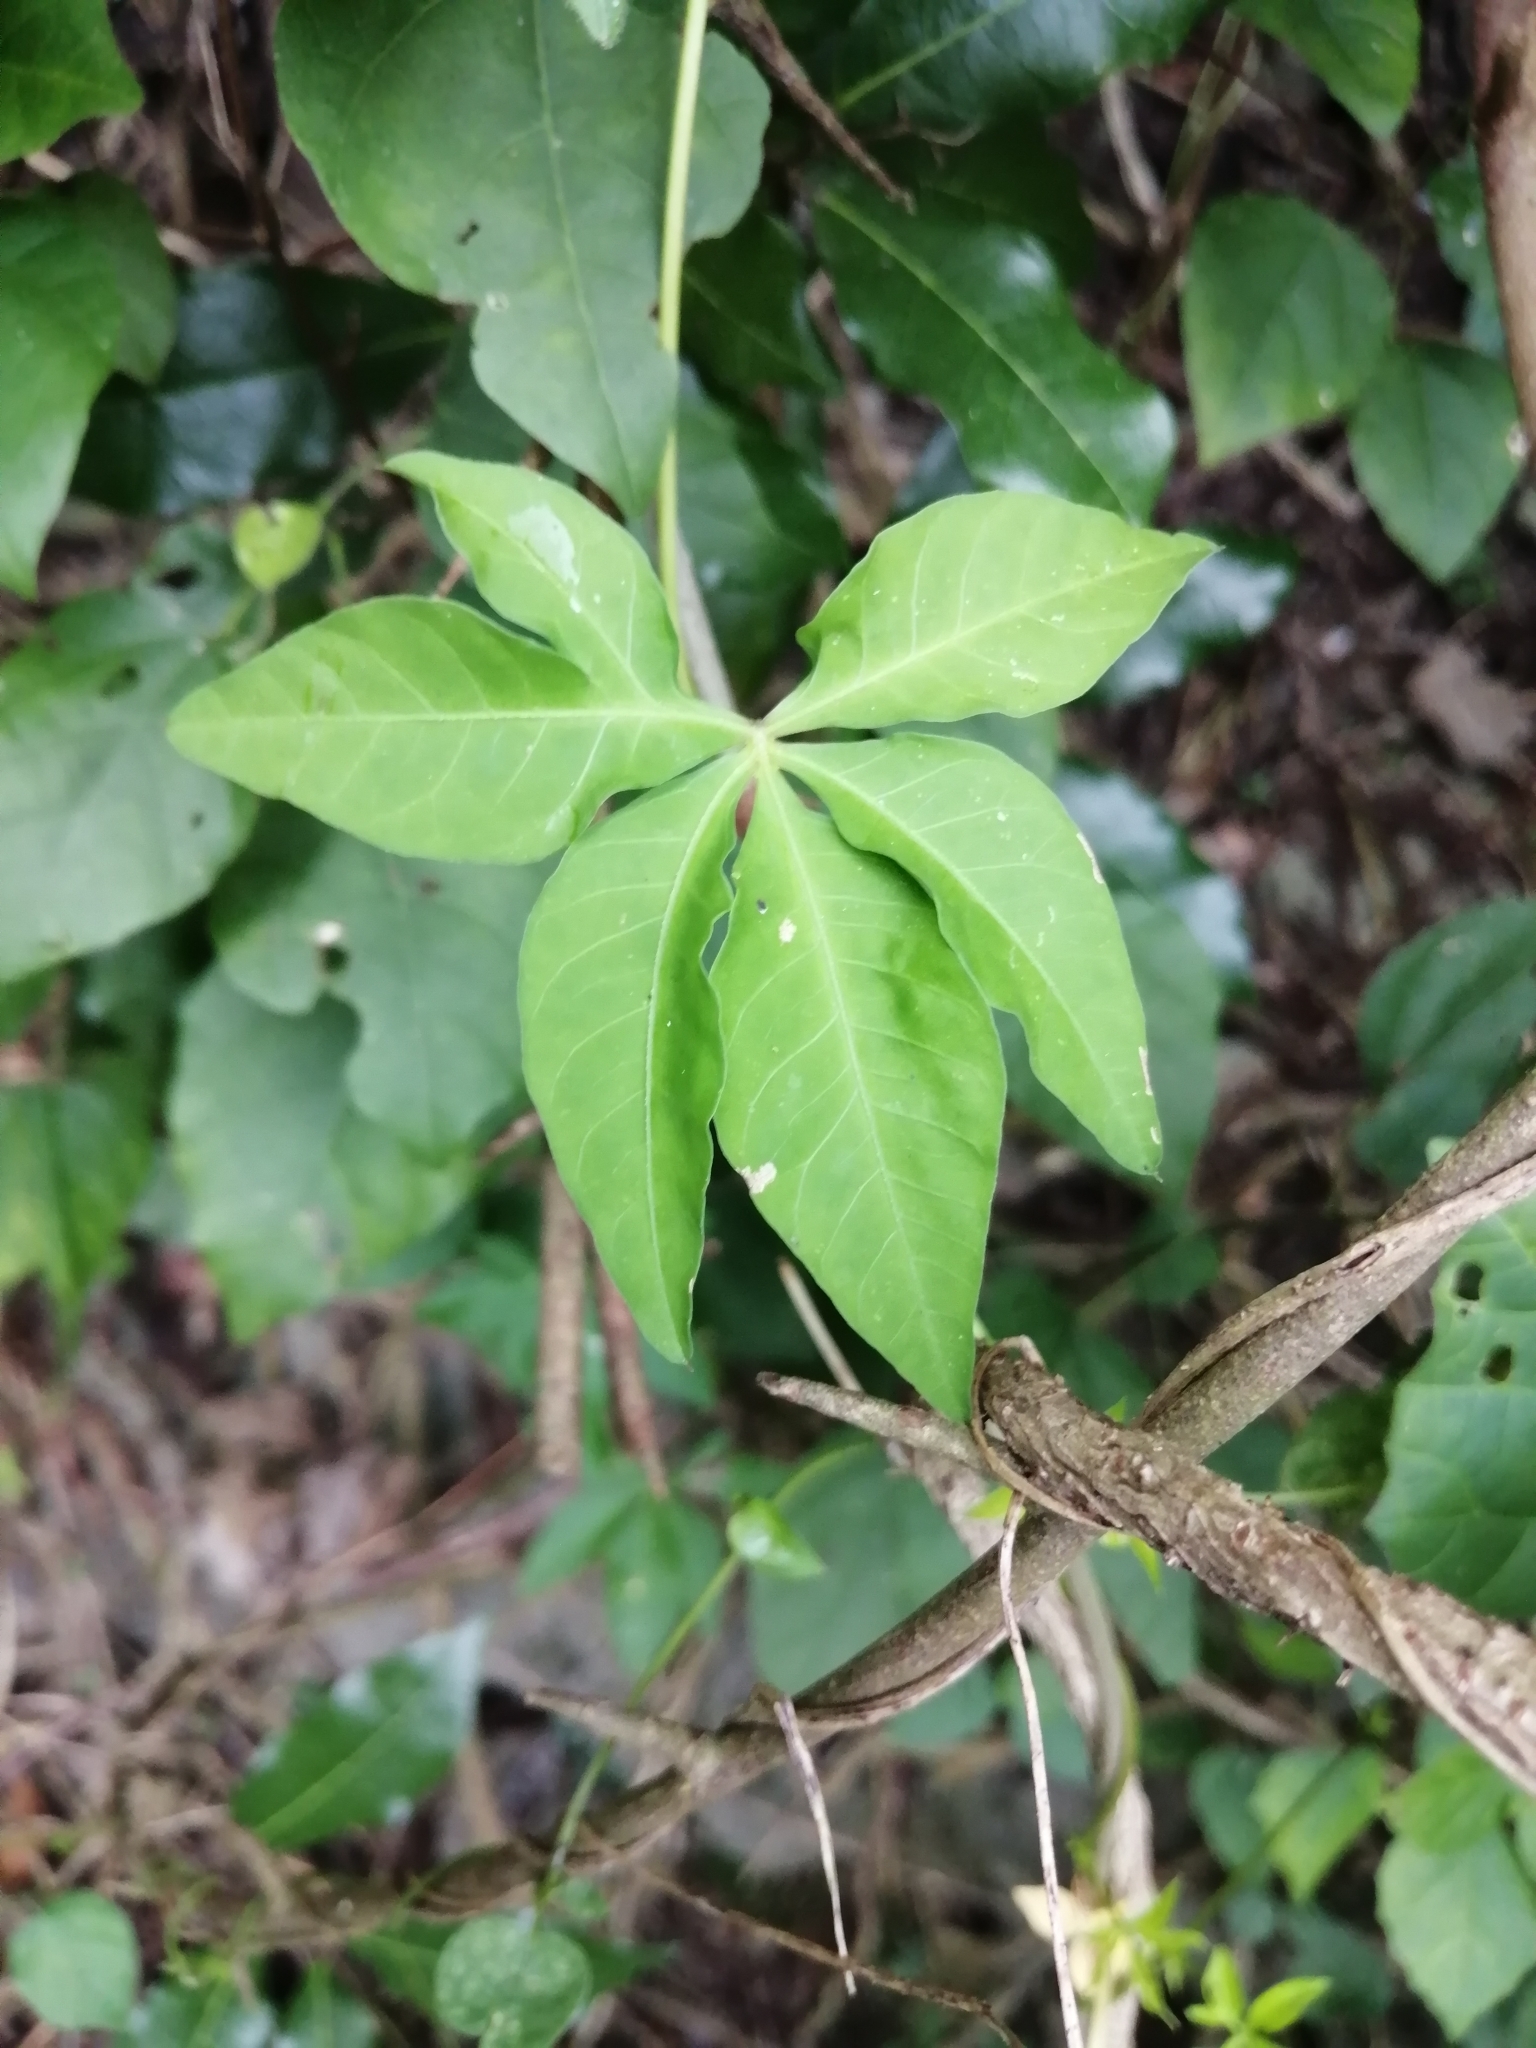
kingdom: Plantae
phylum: Tracheophyta
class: Magnoliopsida
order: Solanales
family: Convolvulaceae
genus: Ipomoea
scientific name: Ipomoea cairica
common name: Mile a minute vine
